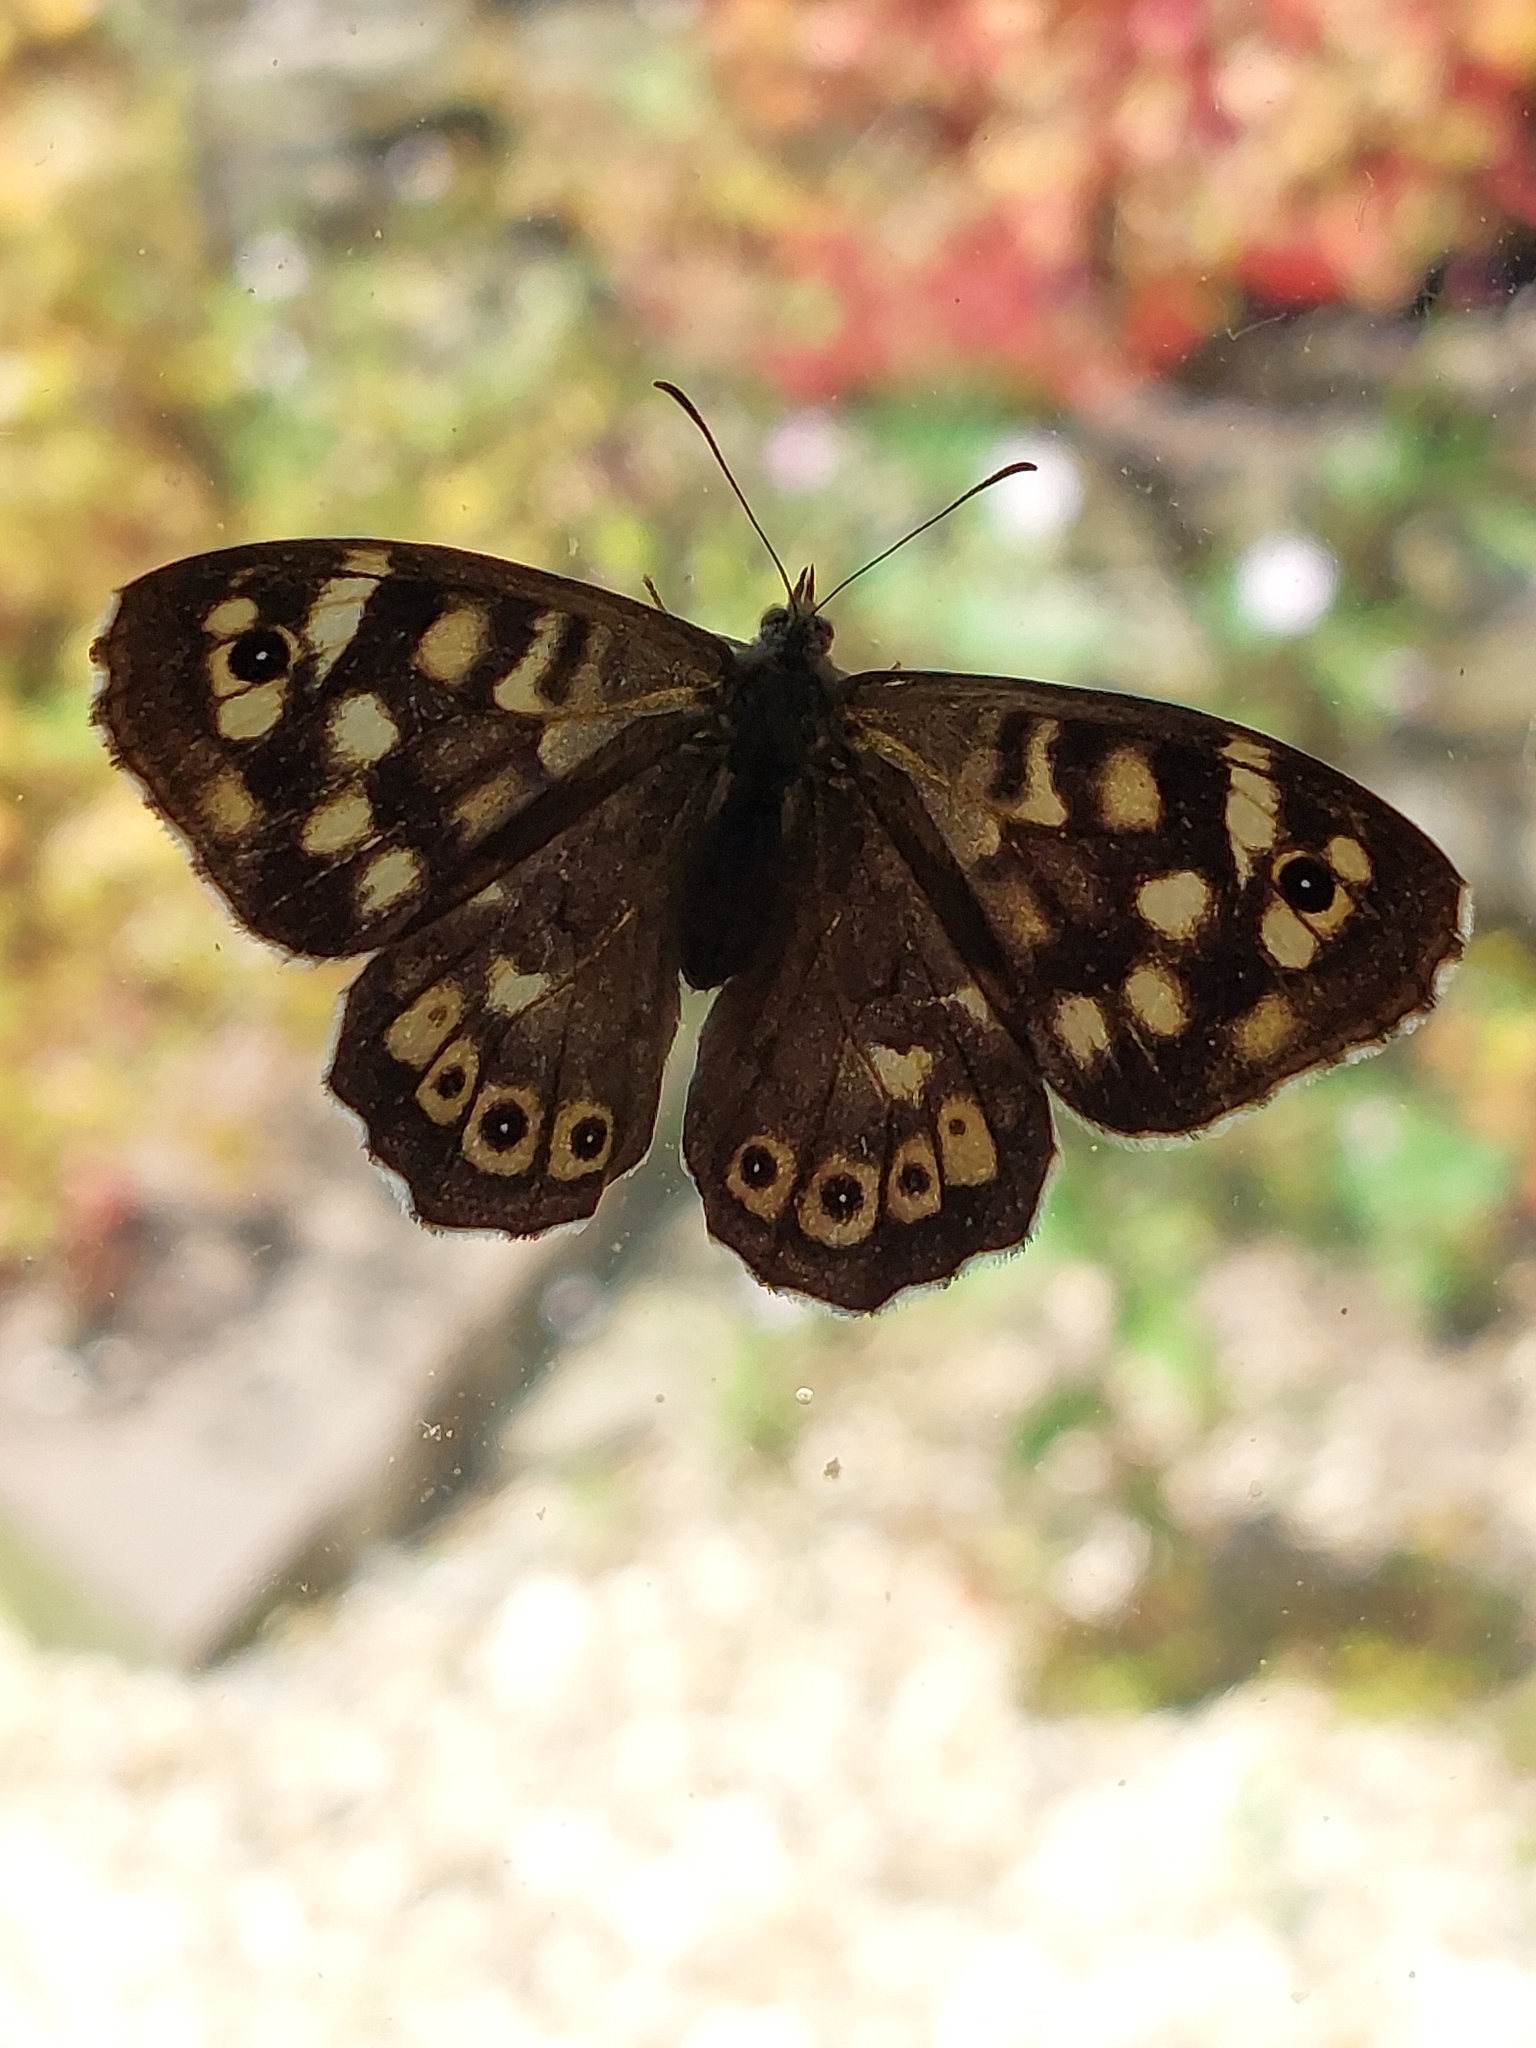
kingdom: Animalia
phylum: Arthropoda
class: Insecta
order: Lepidoptera
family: Nymphalidae
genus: Pararge
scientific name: Pararge aegeria
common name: Speckled wood
